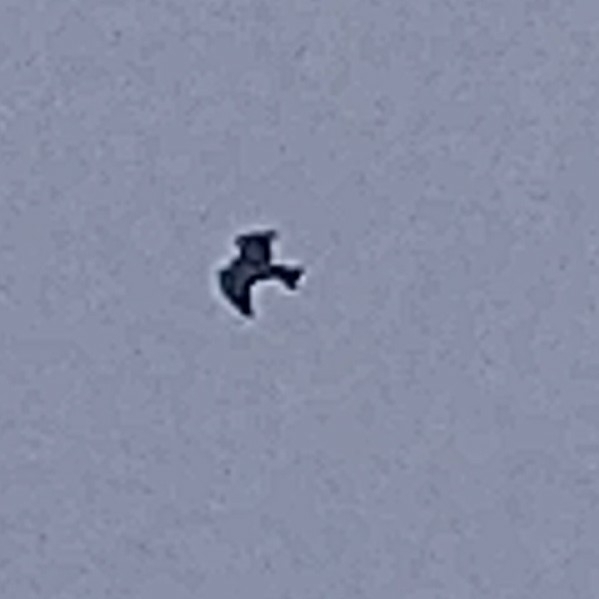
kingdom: Animalia
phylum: Chordata
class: Aves
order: Accipitriformes
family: Accipitridae
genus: Milvus
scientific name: Milvus migrans
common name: Black kite
